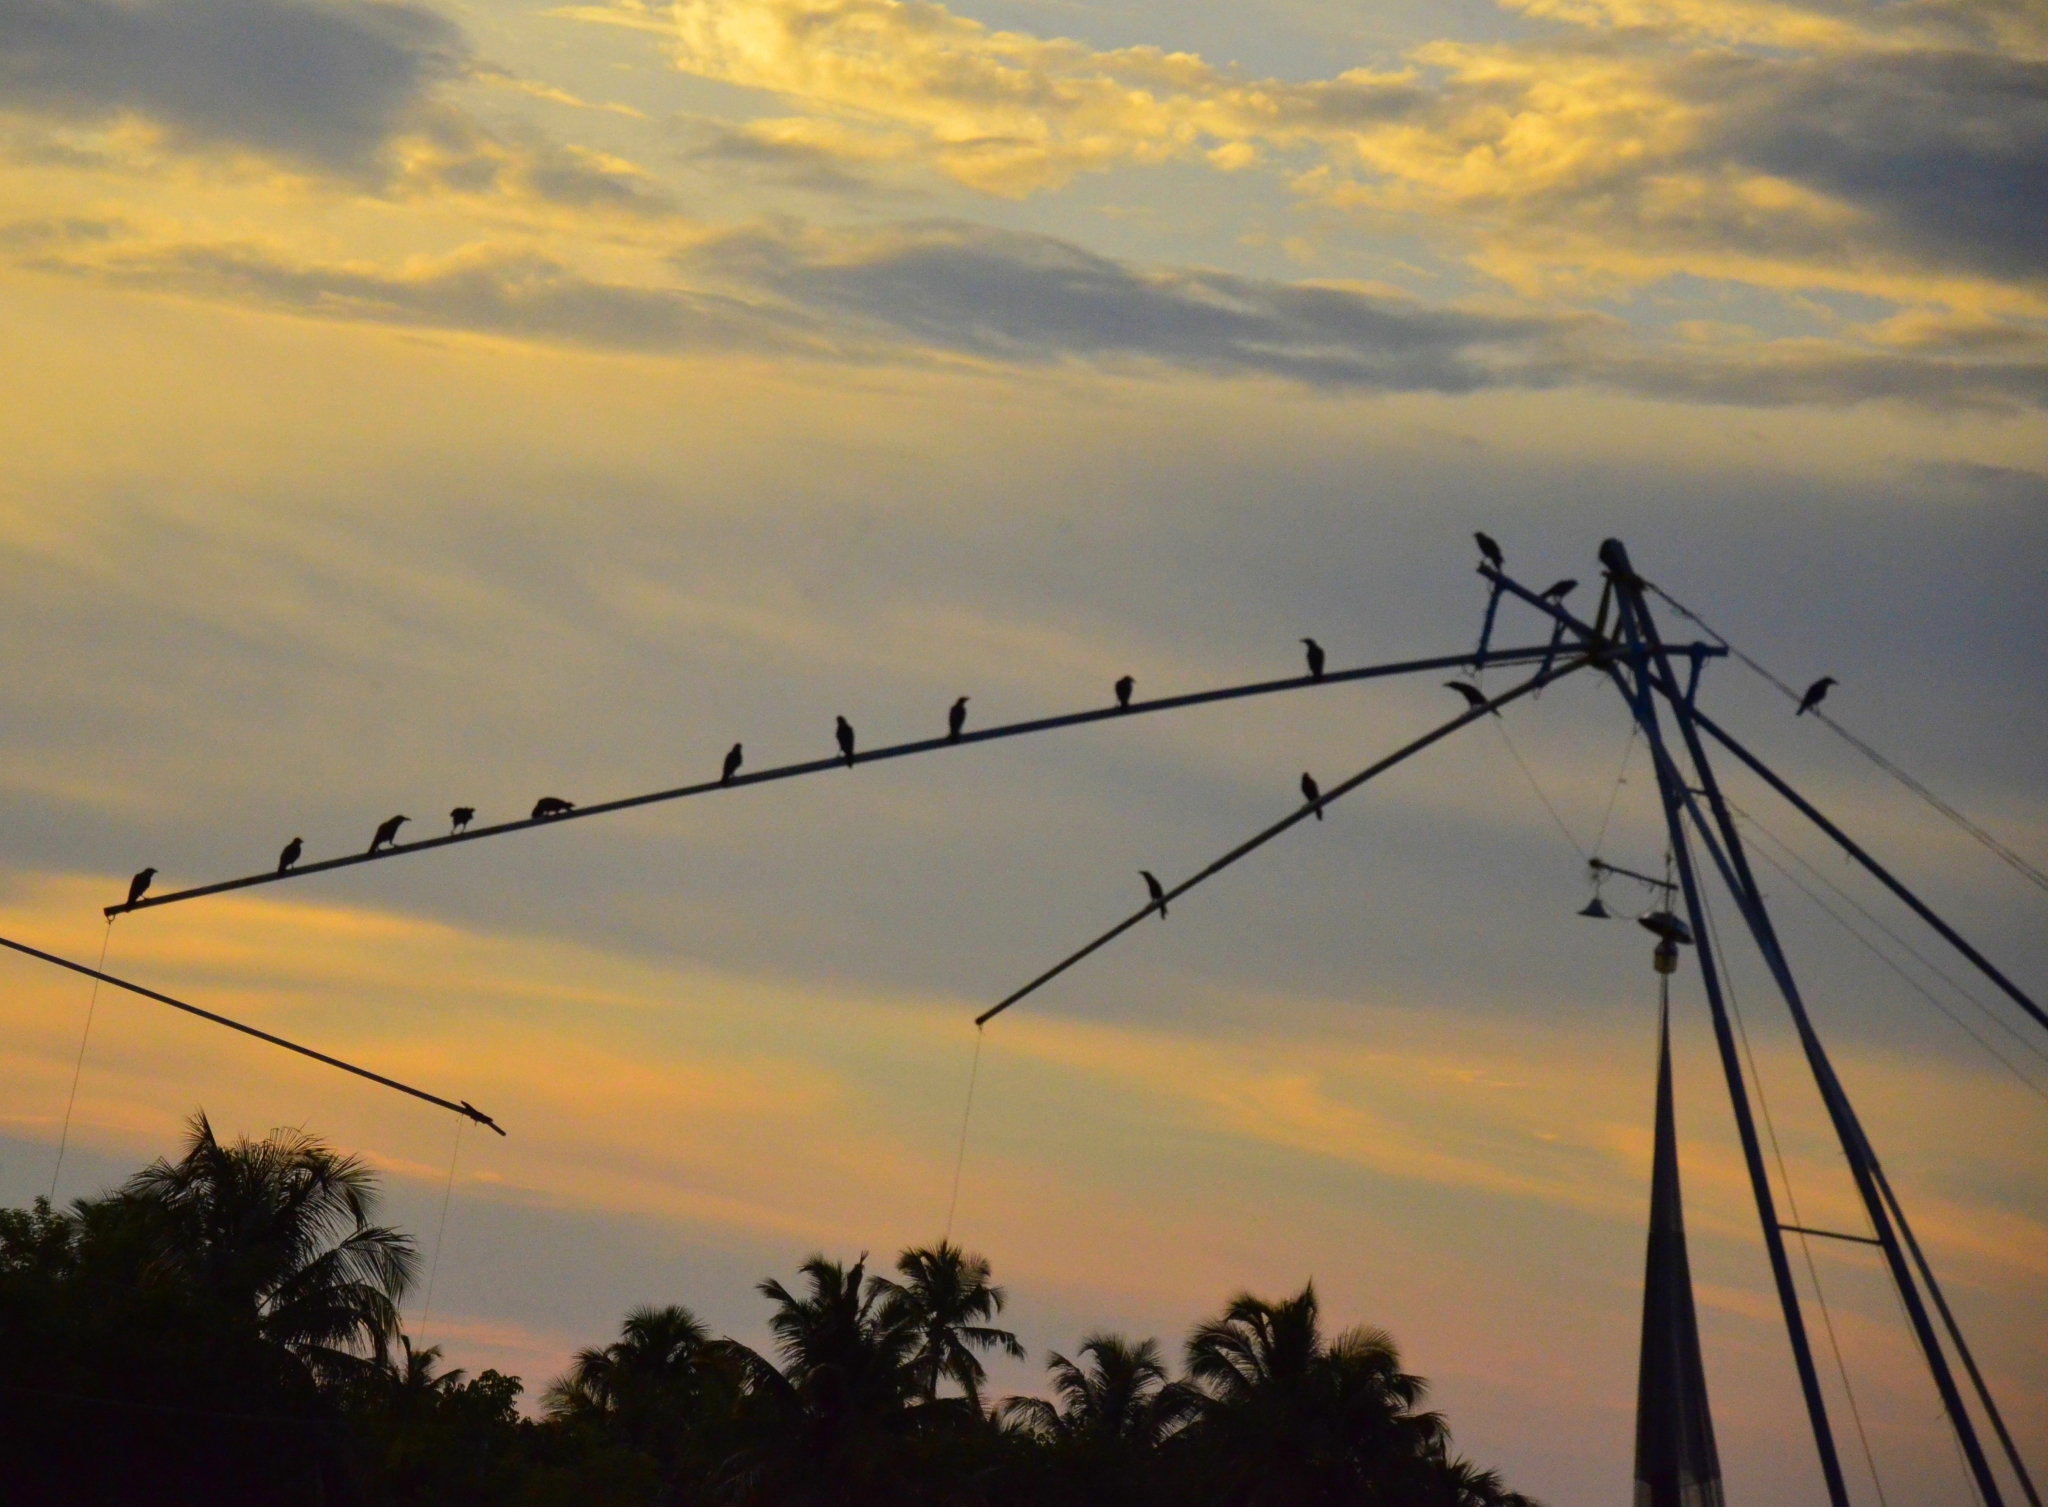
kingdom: Animalia
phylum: Chordata
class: Aves
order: Passeriformes
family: Corvidae
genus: Corvus
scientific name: Corvus splendens
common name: House crow
